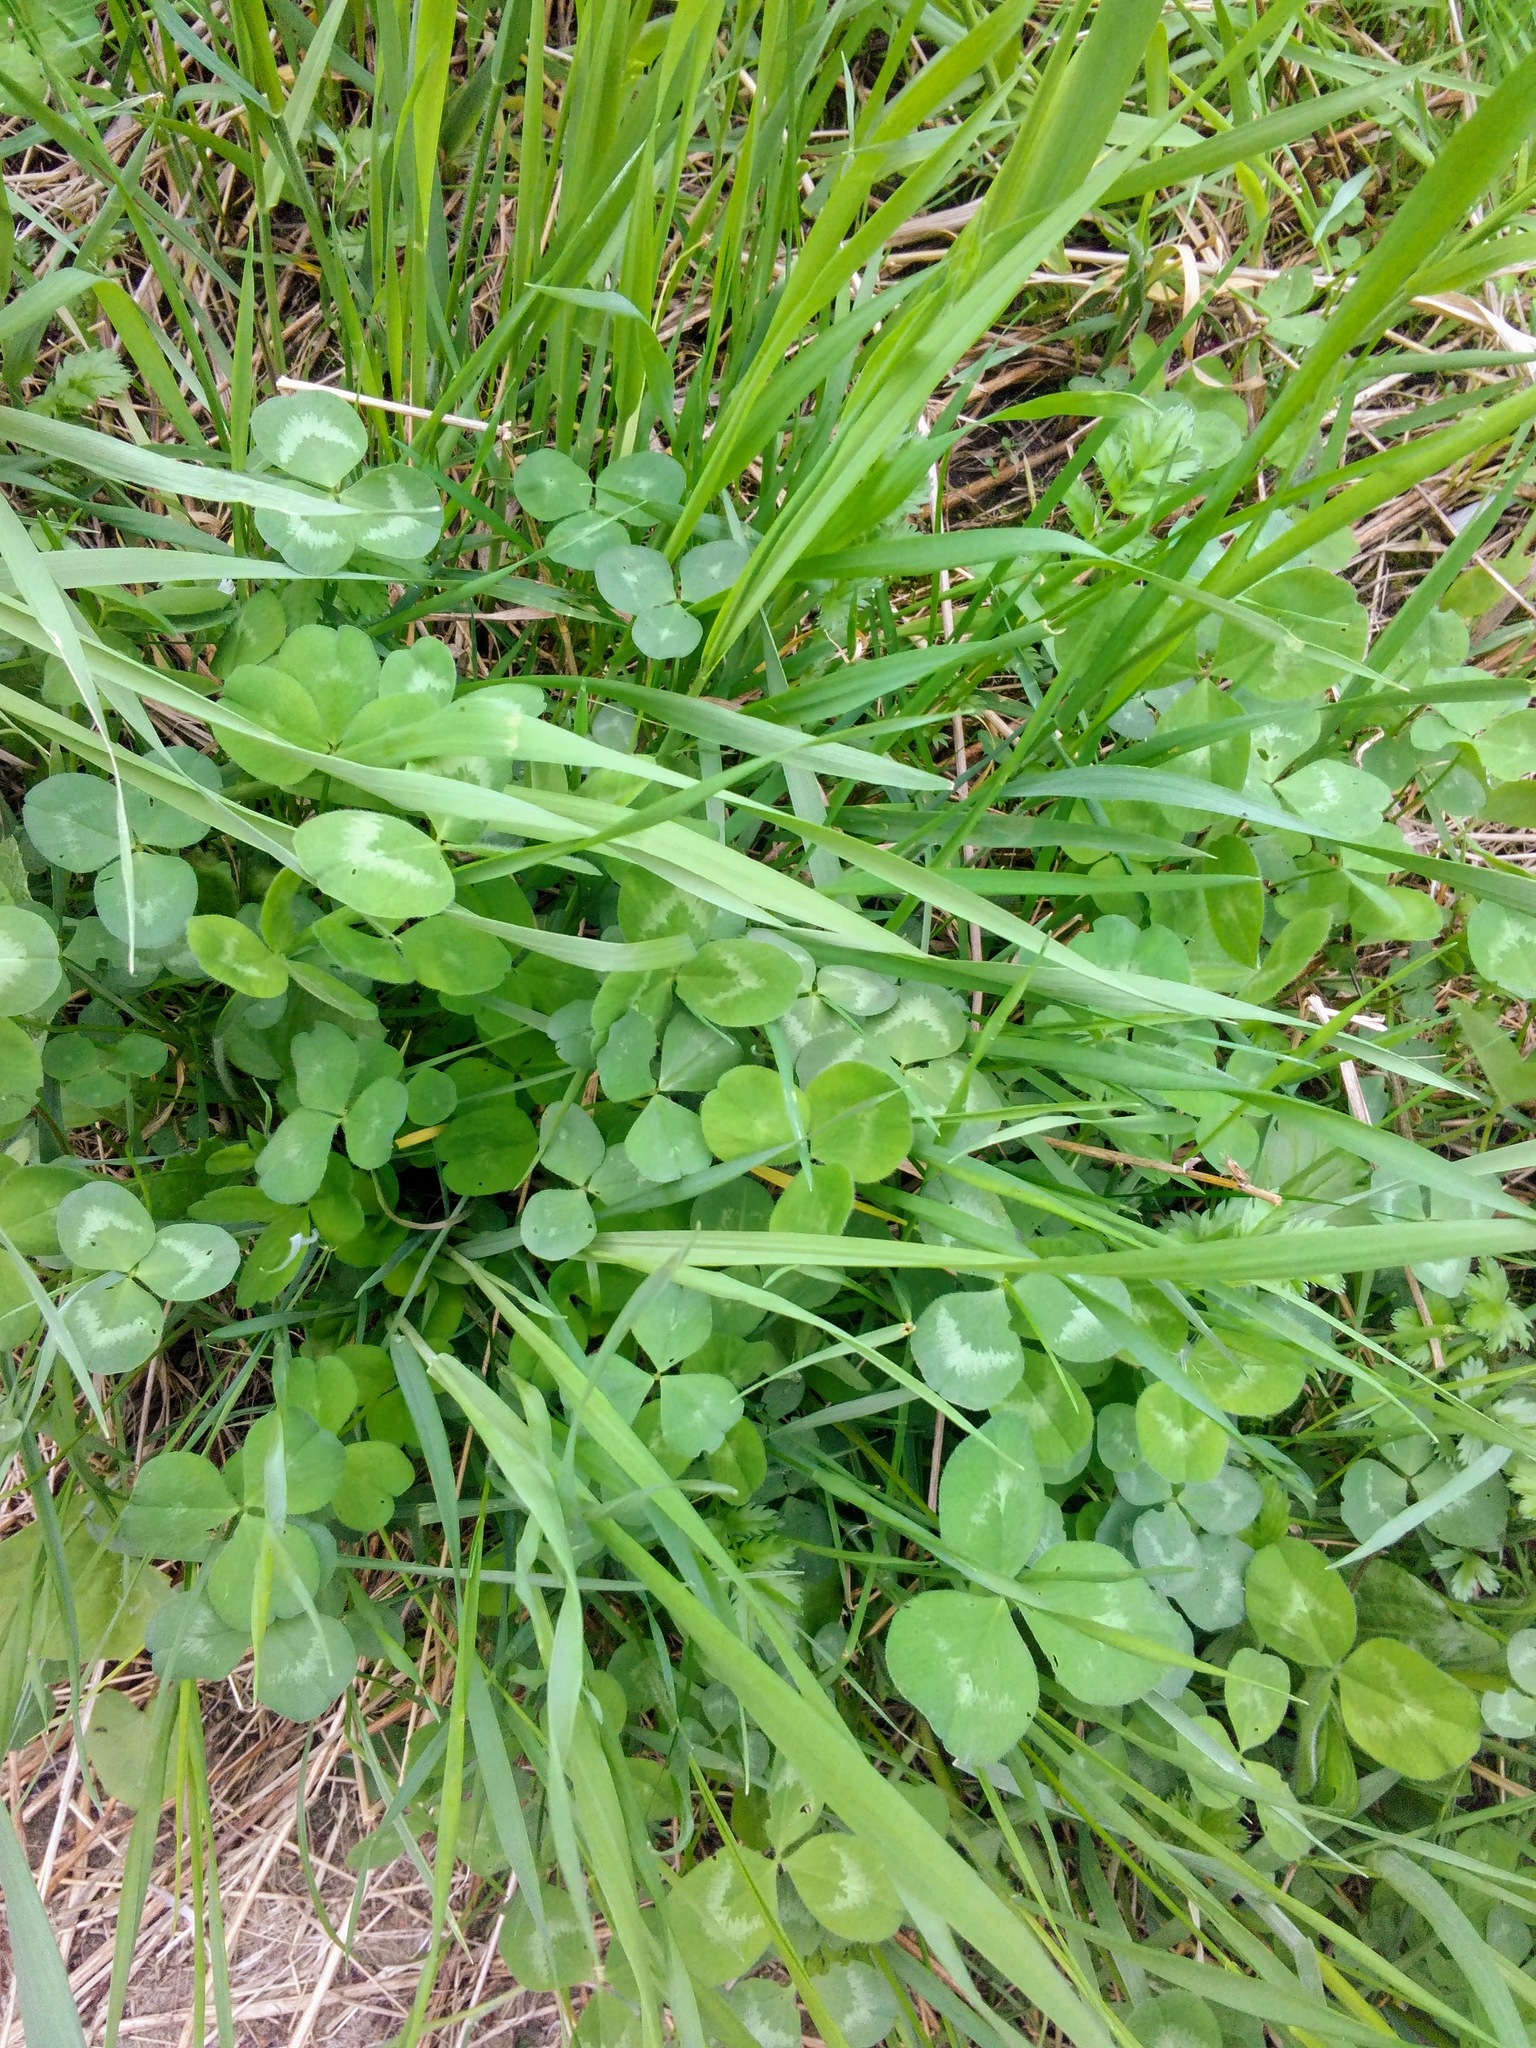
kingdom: Plantae
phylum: Tracheophyta
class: Magnoliopsida
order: Fabales
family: Fabaceae
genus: Trifolium
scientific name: Trifolium repens
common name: White clover
